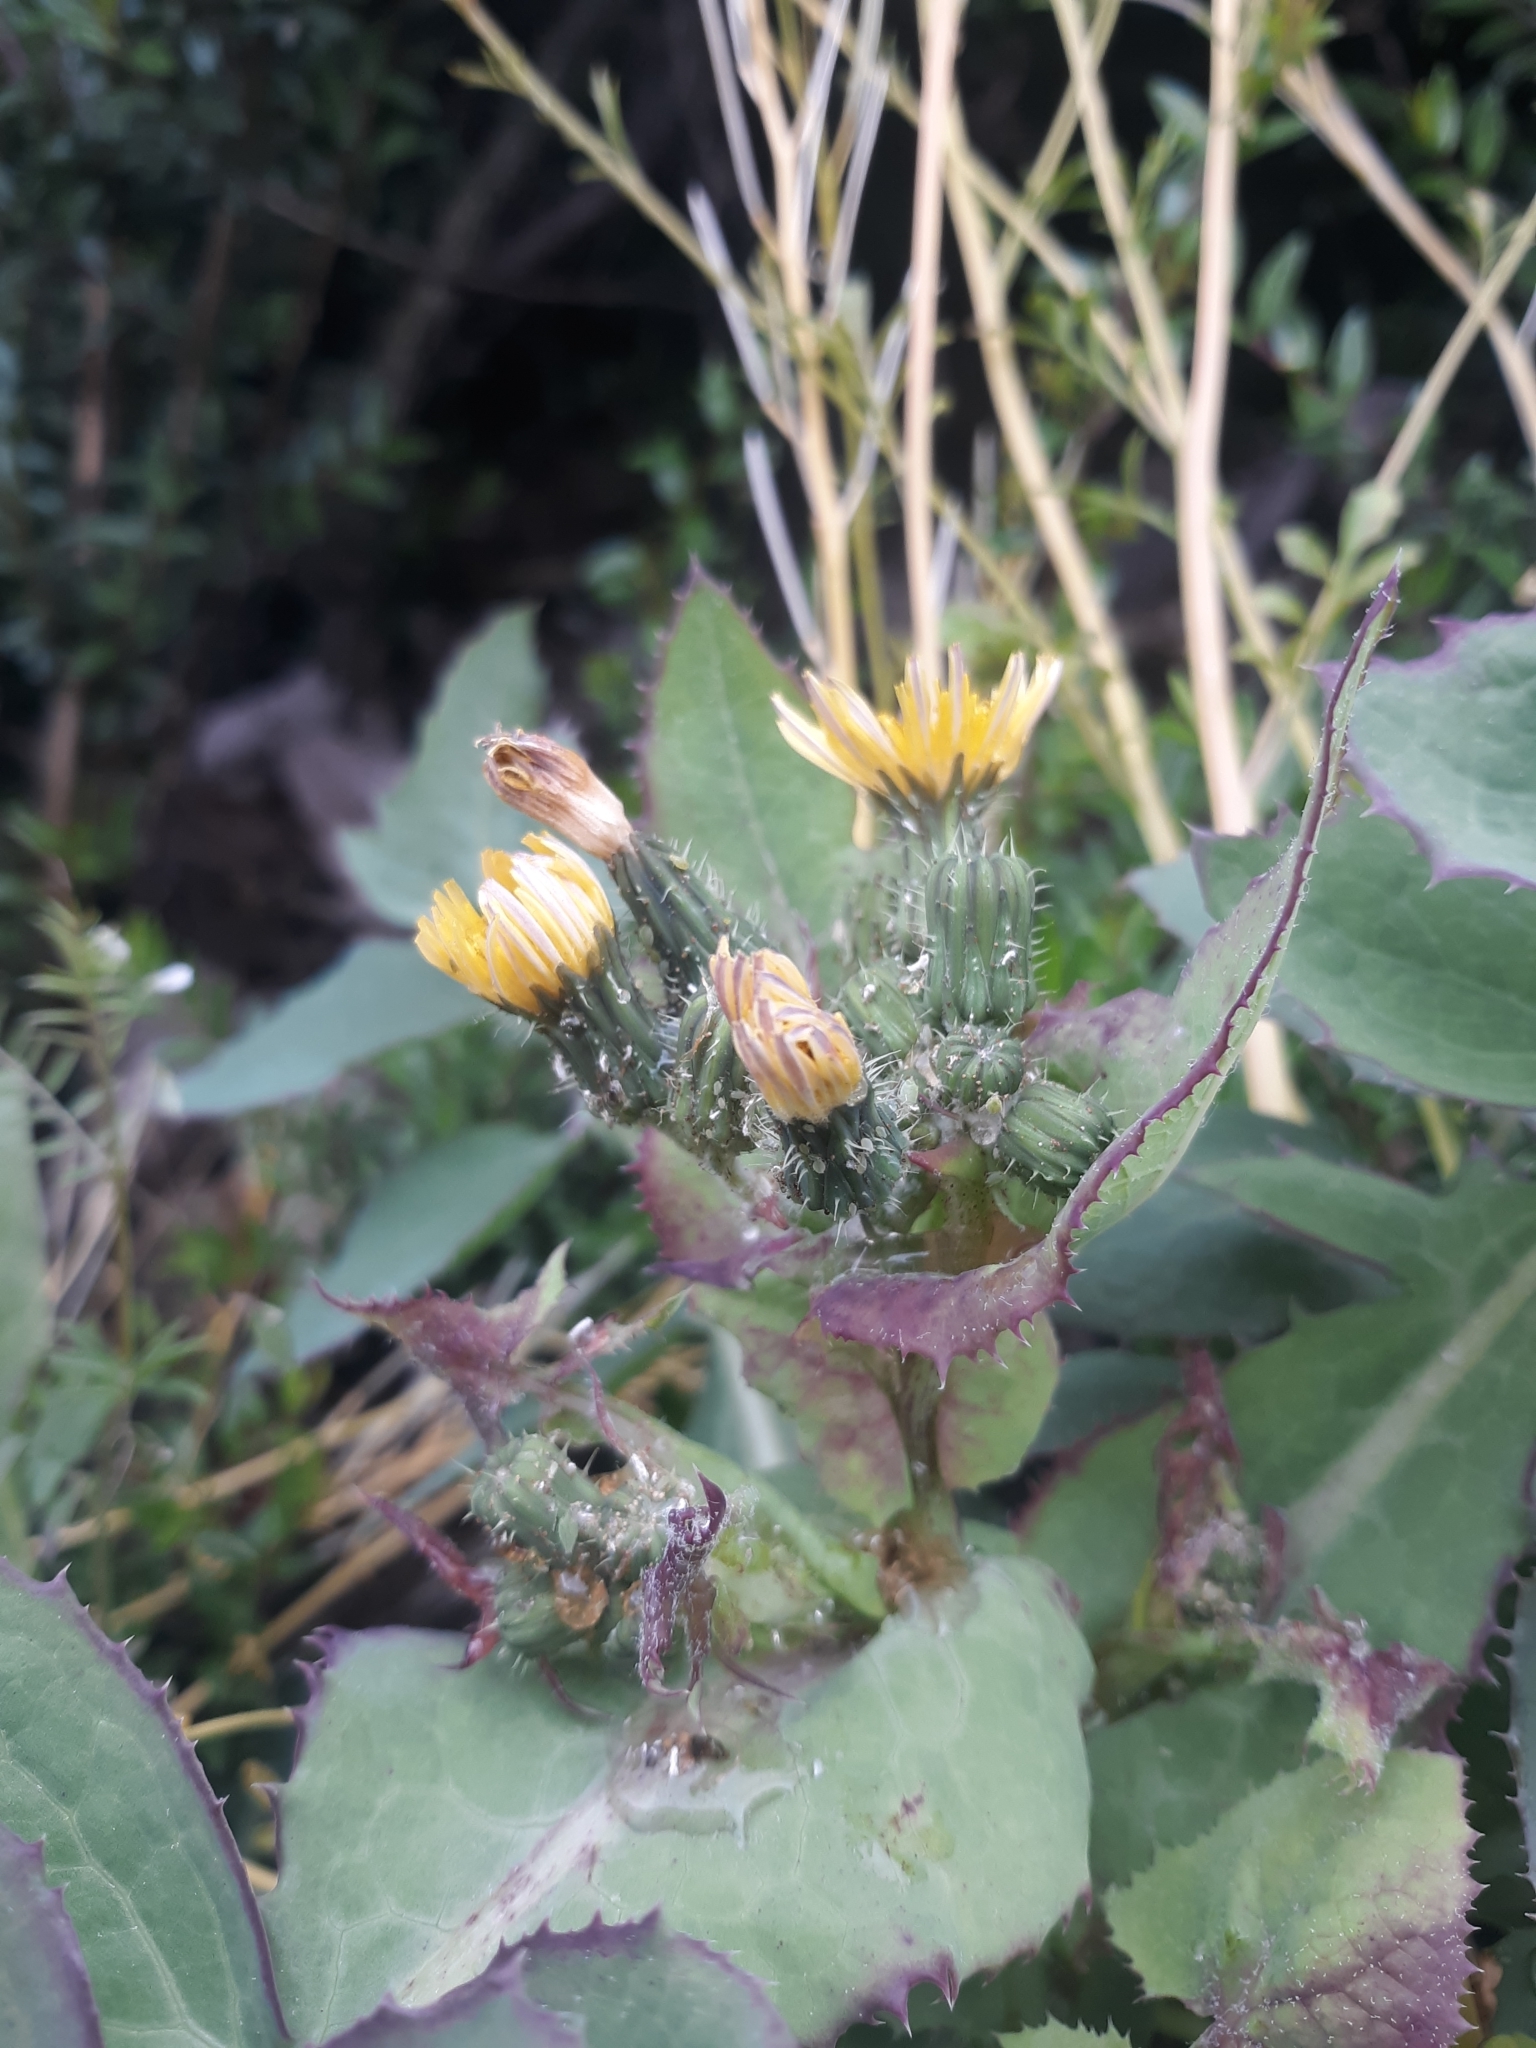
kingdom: Plantae
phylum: Tracheophyta
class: Magnoliopsida
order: Asterales
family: Asteraceae
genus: Sonchus
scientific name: Sonchus oleraceus
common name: Common sowthistle
